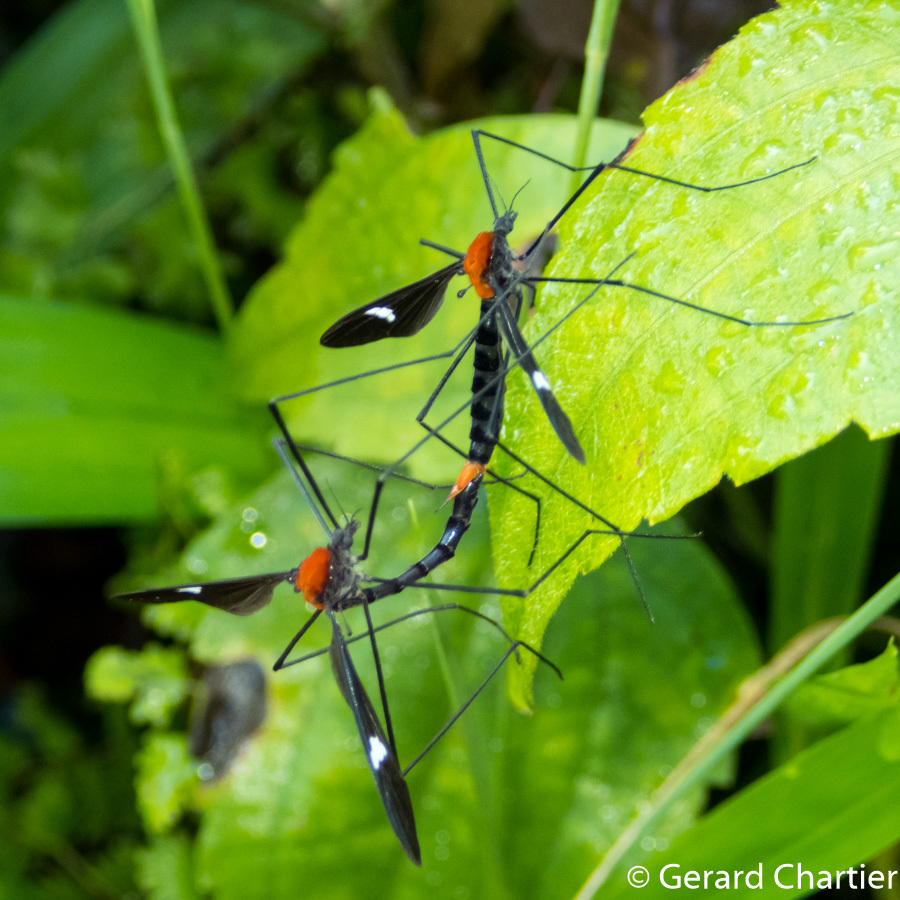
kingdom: Animalia
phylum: Arthropoda
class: Insecta
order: Diptera
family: Limoniidae
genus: Hexatoma
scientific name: Hexatoma fenestrata
